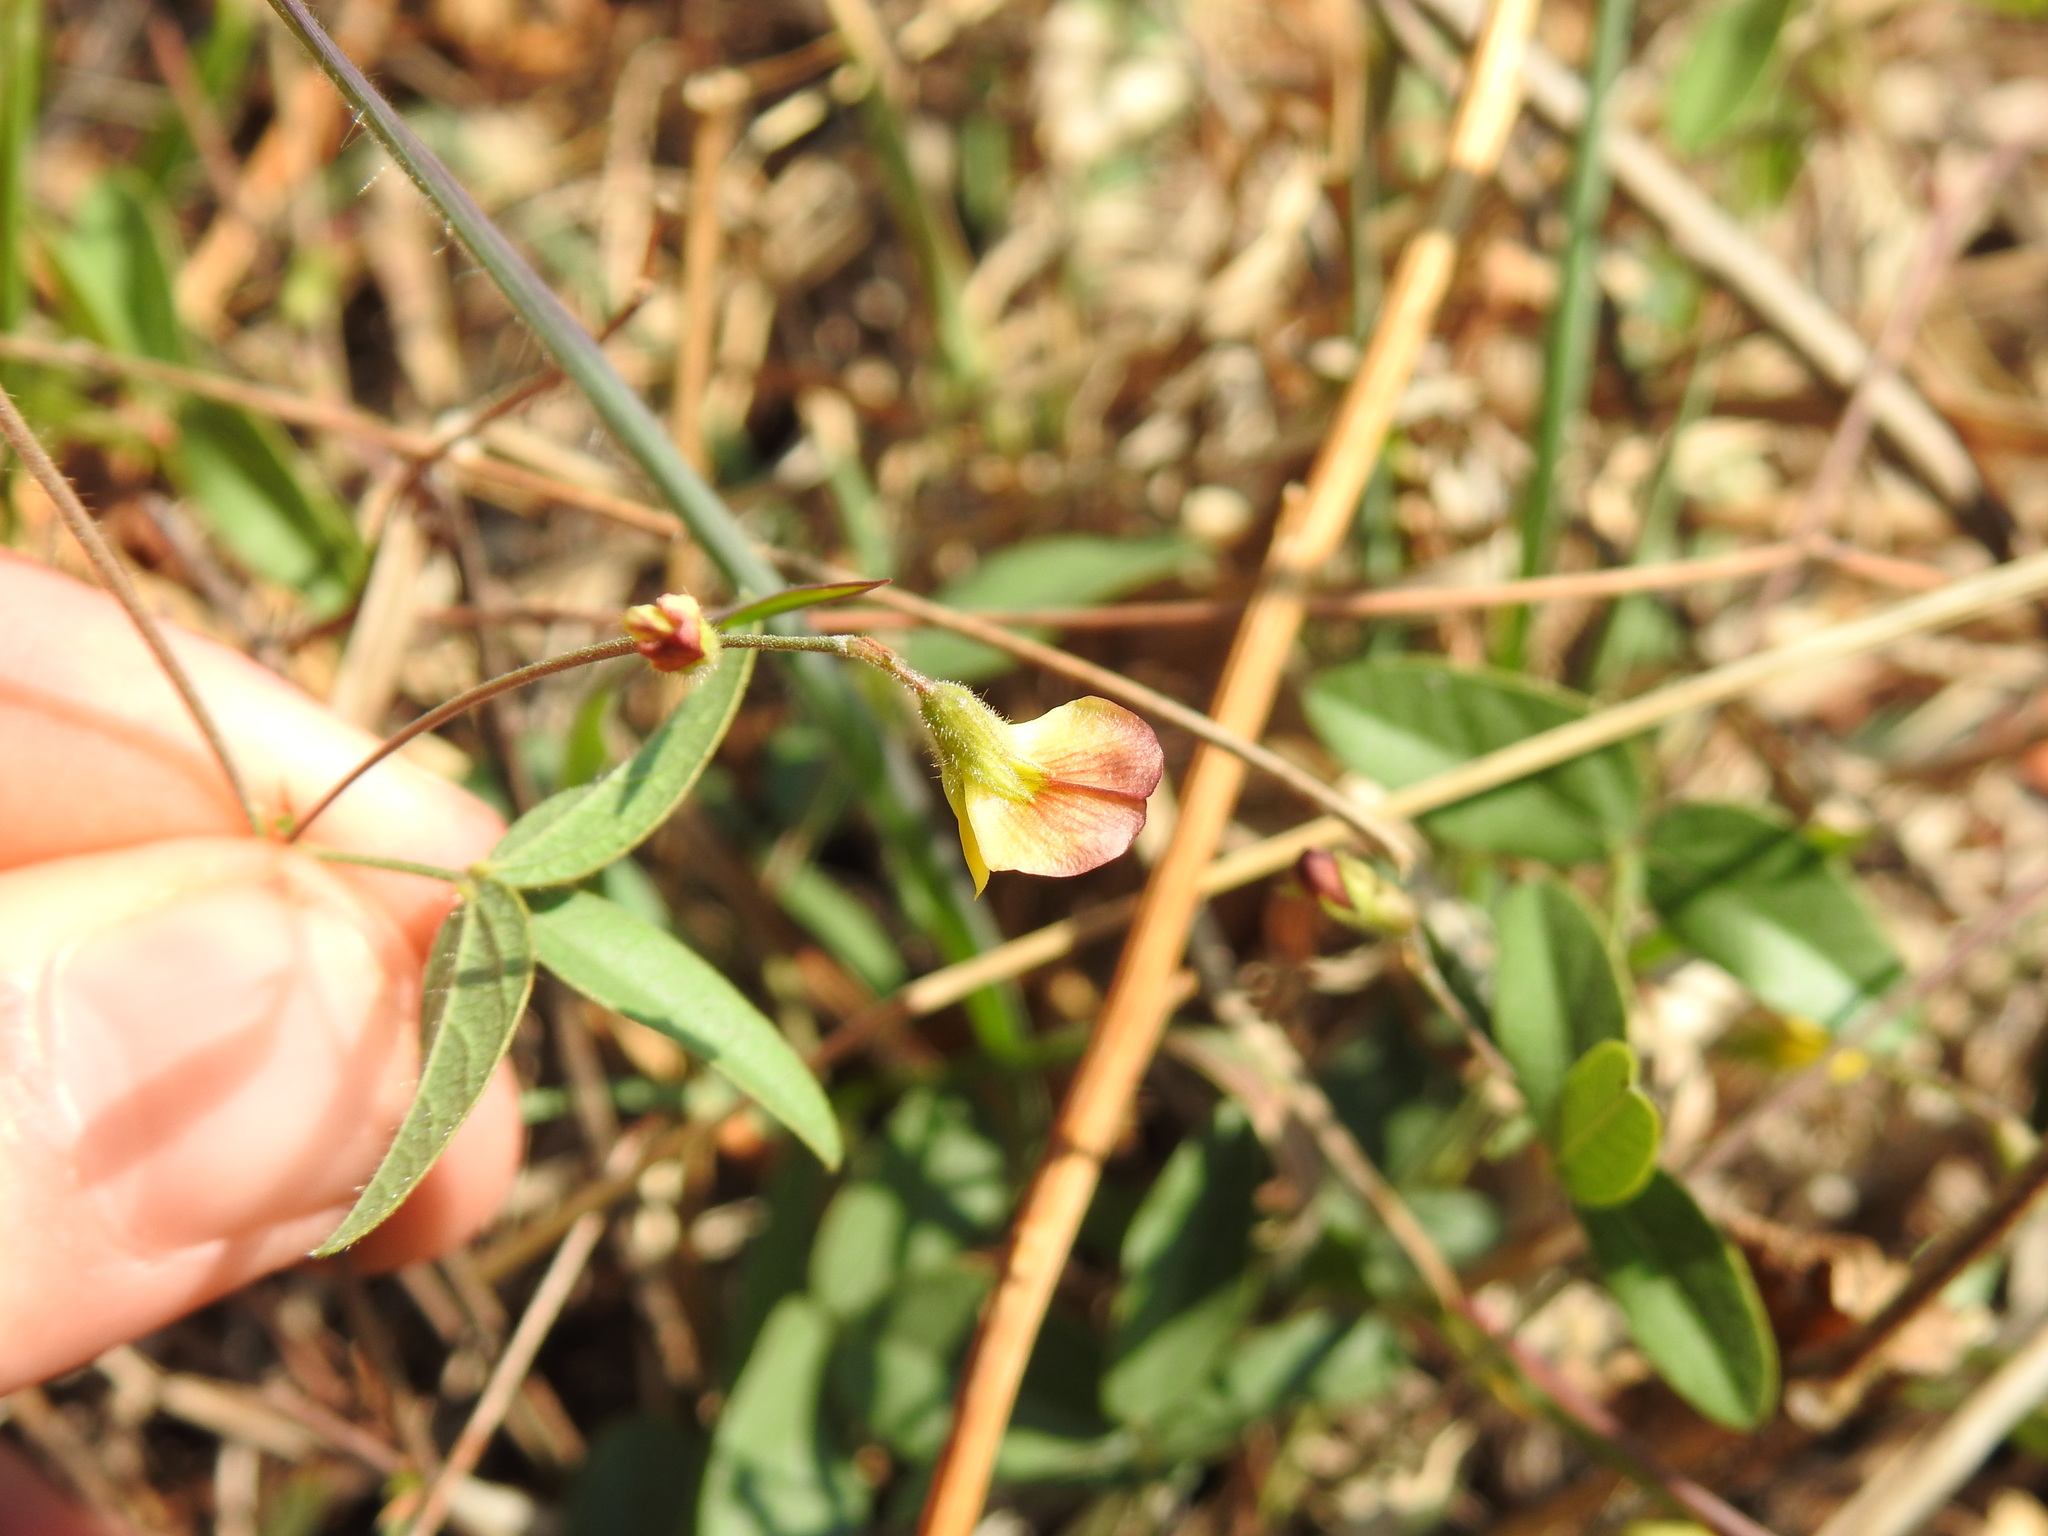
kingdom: Plantae
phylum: Tracheophyta
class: Magnoliopsida
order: Fabales
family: Fabaceae
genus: Rhynchosia
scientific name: Rhynchosia totta
